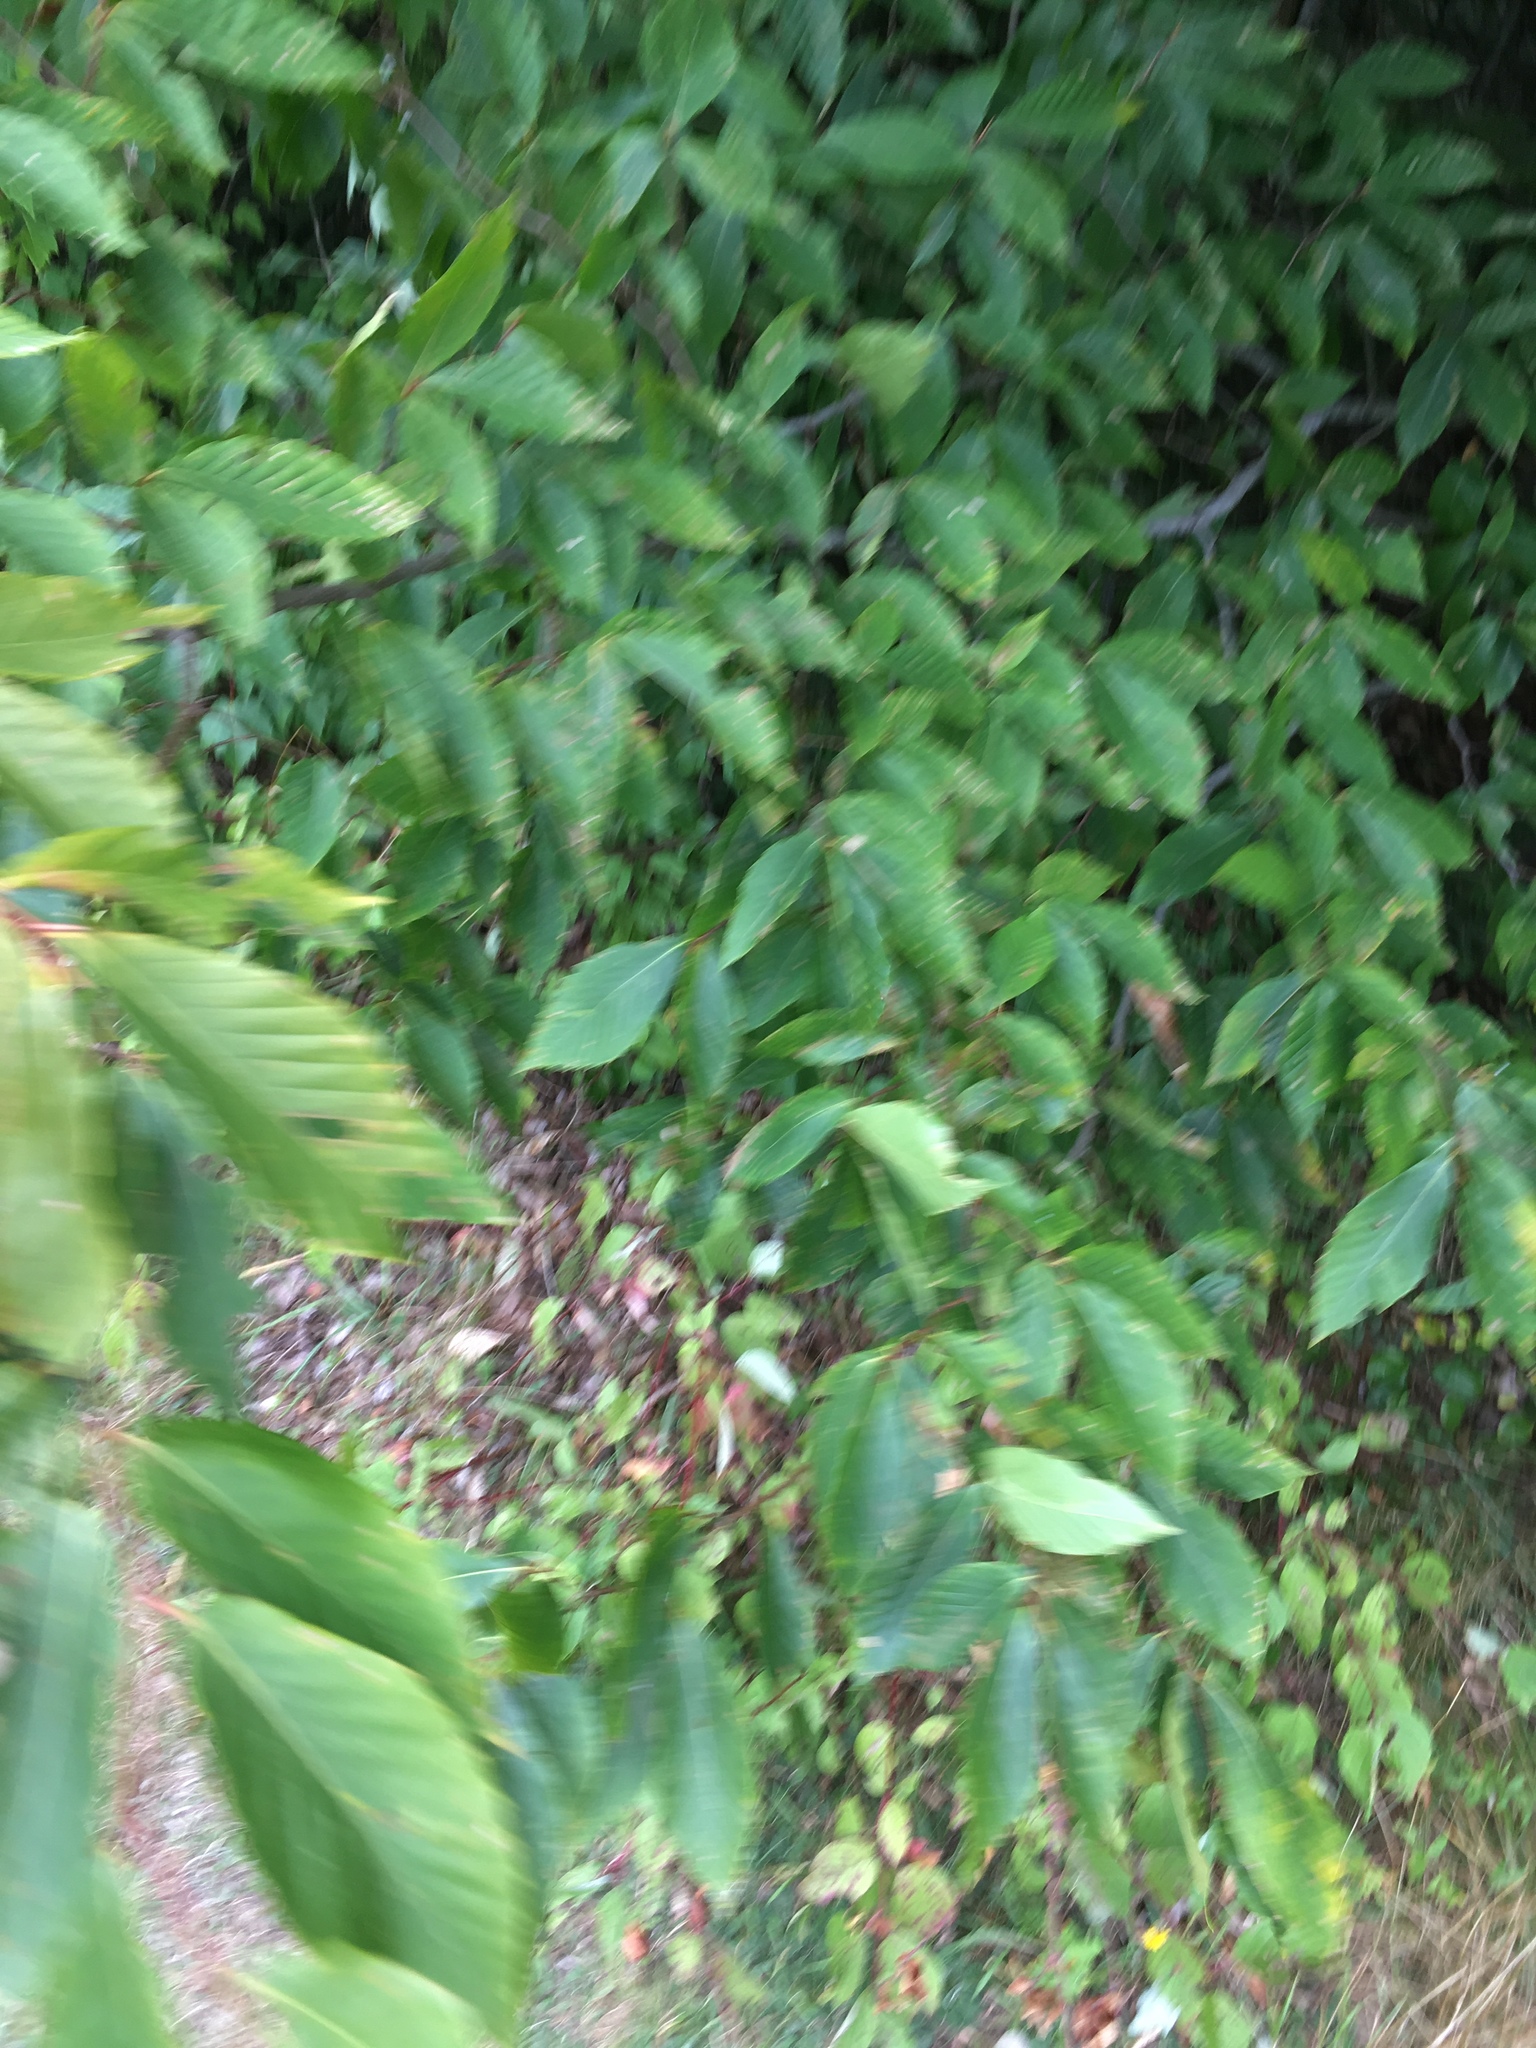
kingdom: Plantae
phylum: Tracheophyta
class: Magnoliopsida
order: Fagales
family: Fagaceae
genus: Fagus
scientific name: Fagus grandifolia
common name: American beech
